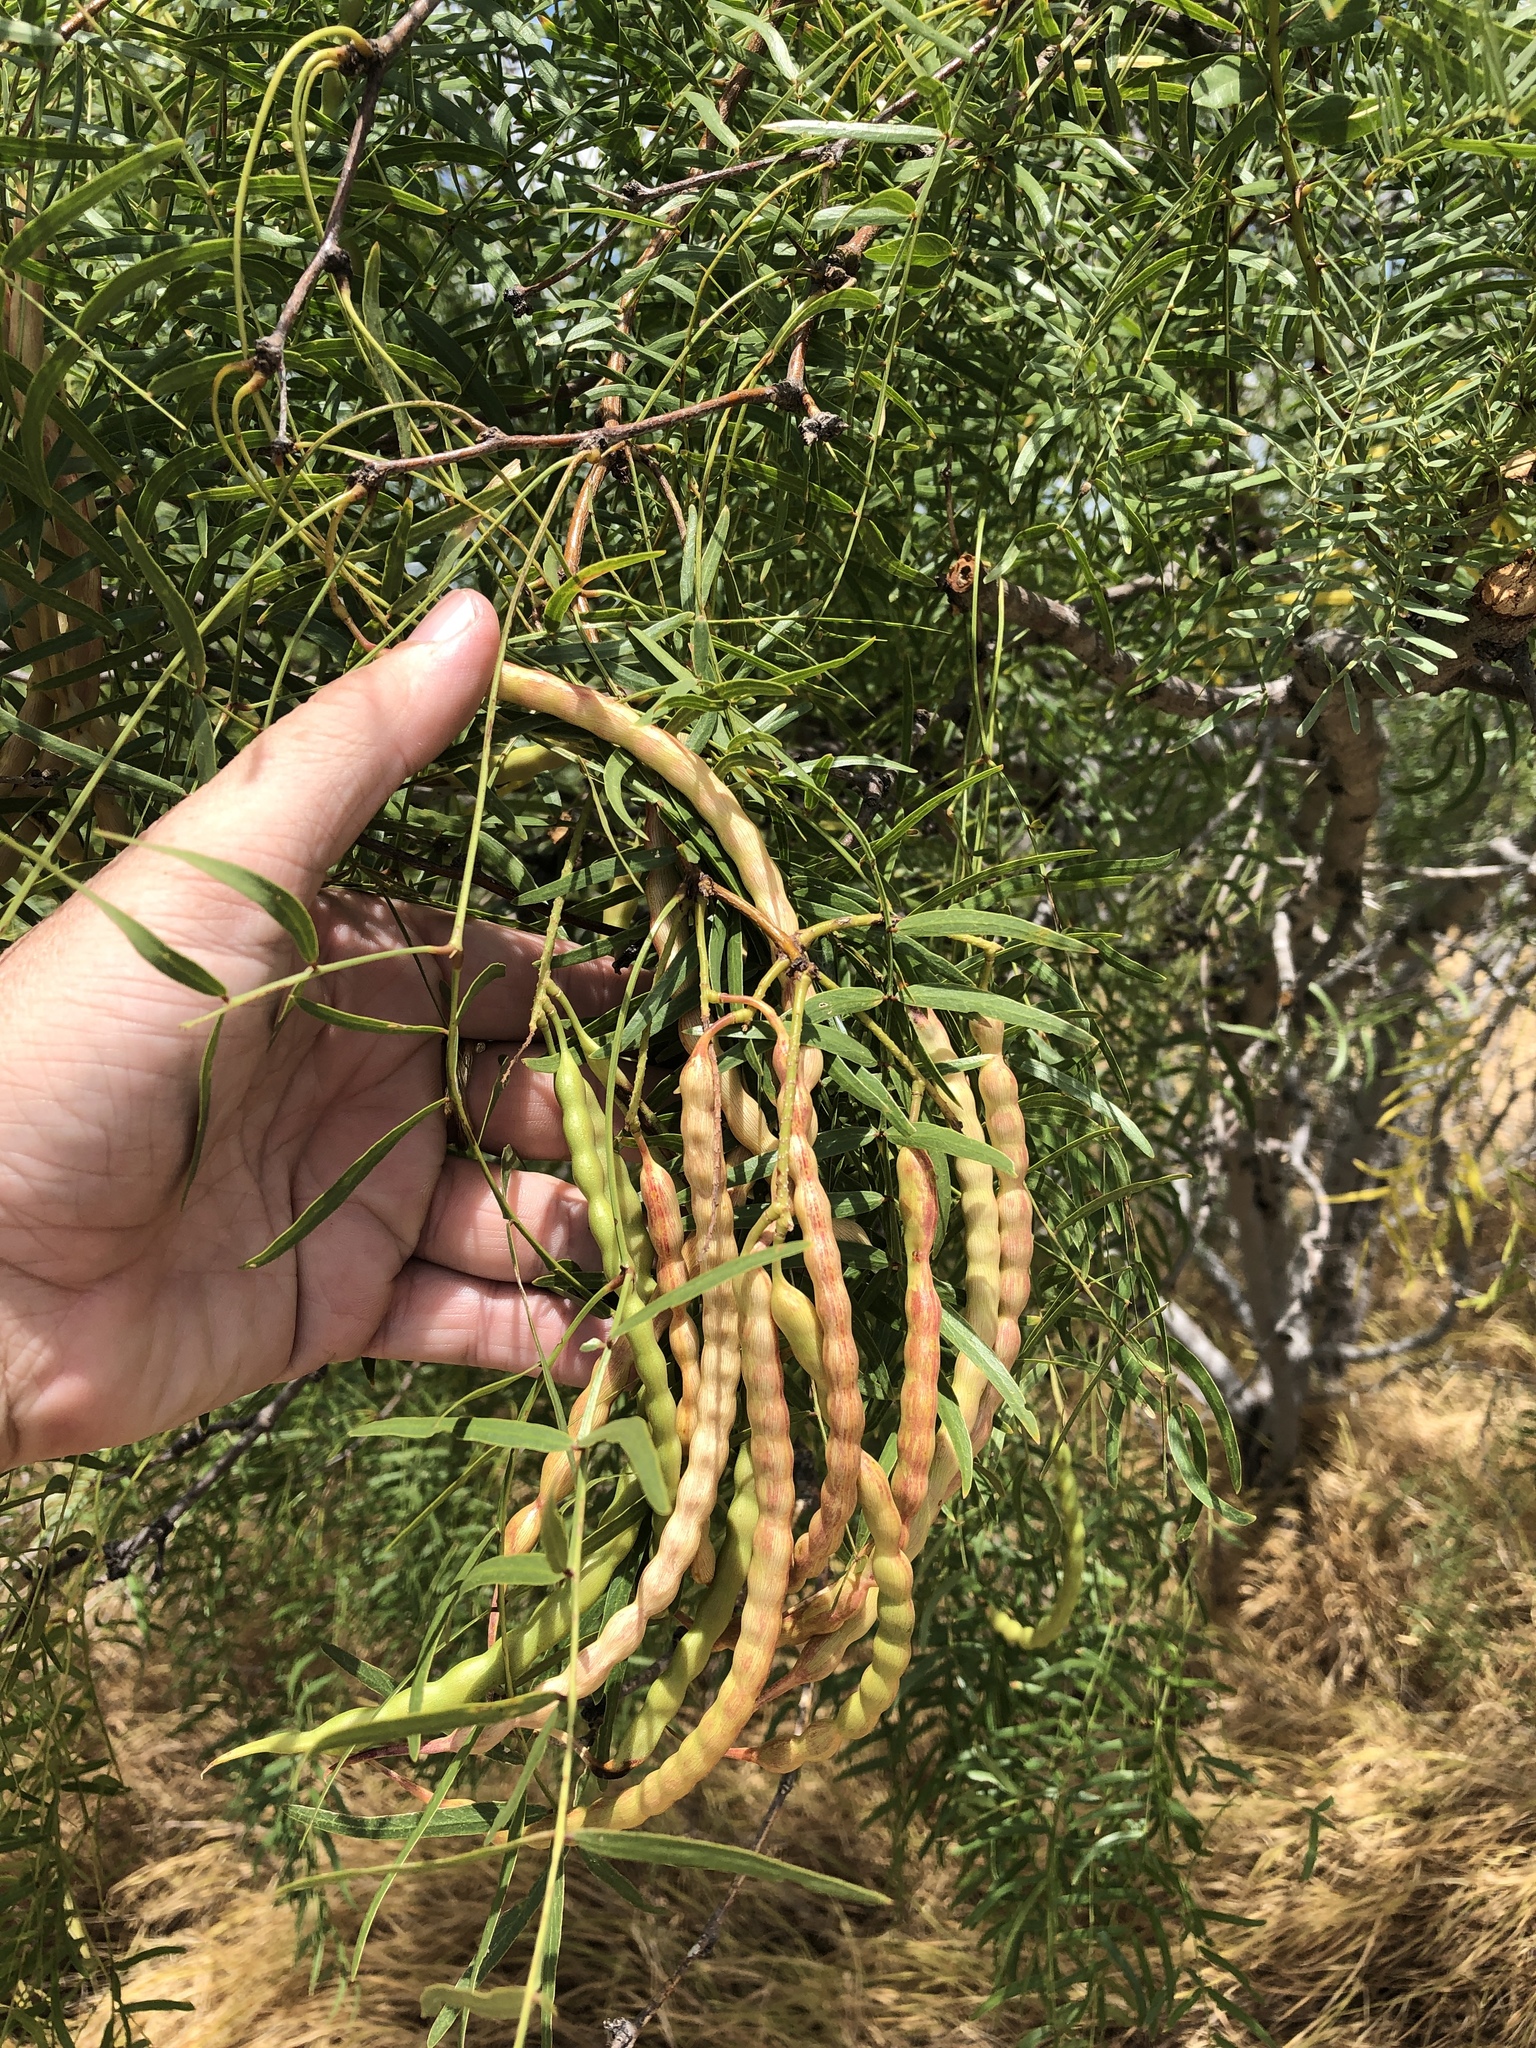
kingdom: Plantae
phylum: Tracheophyta
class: Magnoliopsida
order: Fabales
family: Fabaceae
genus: Prosopis
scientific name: Prosopis glandulosa
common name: Honey mesquite
